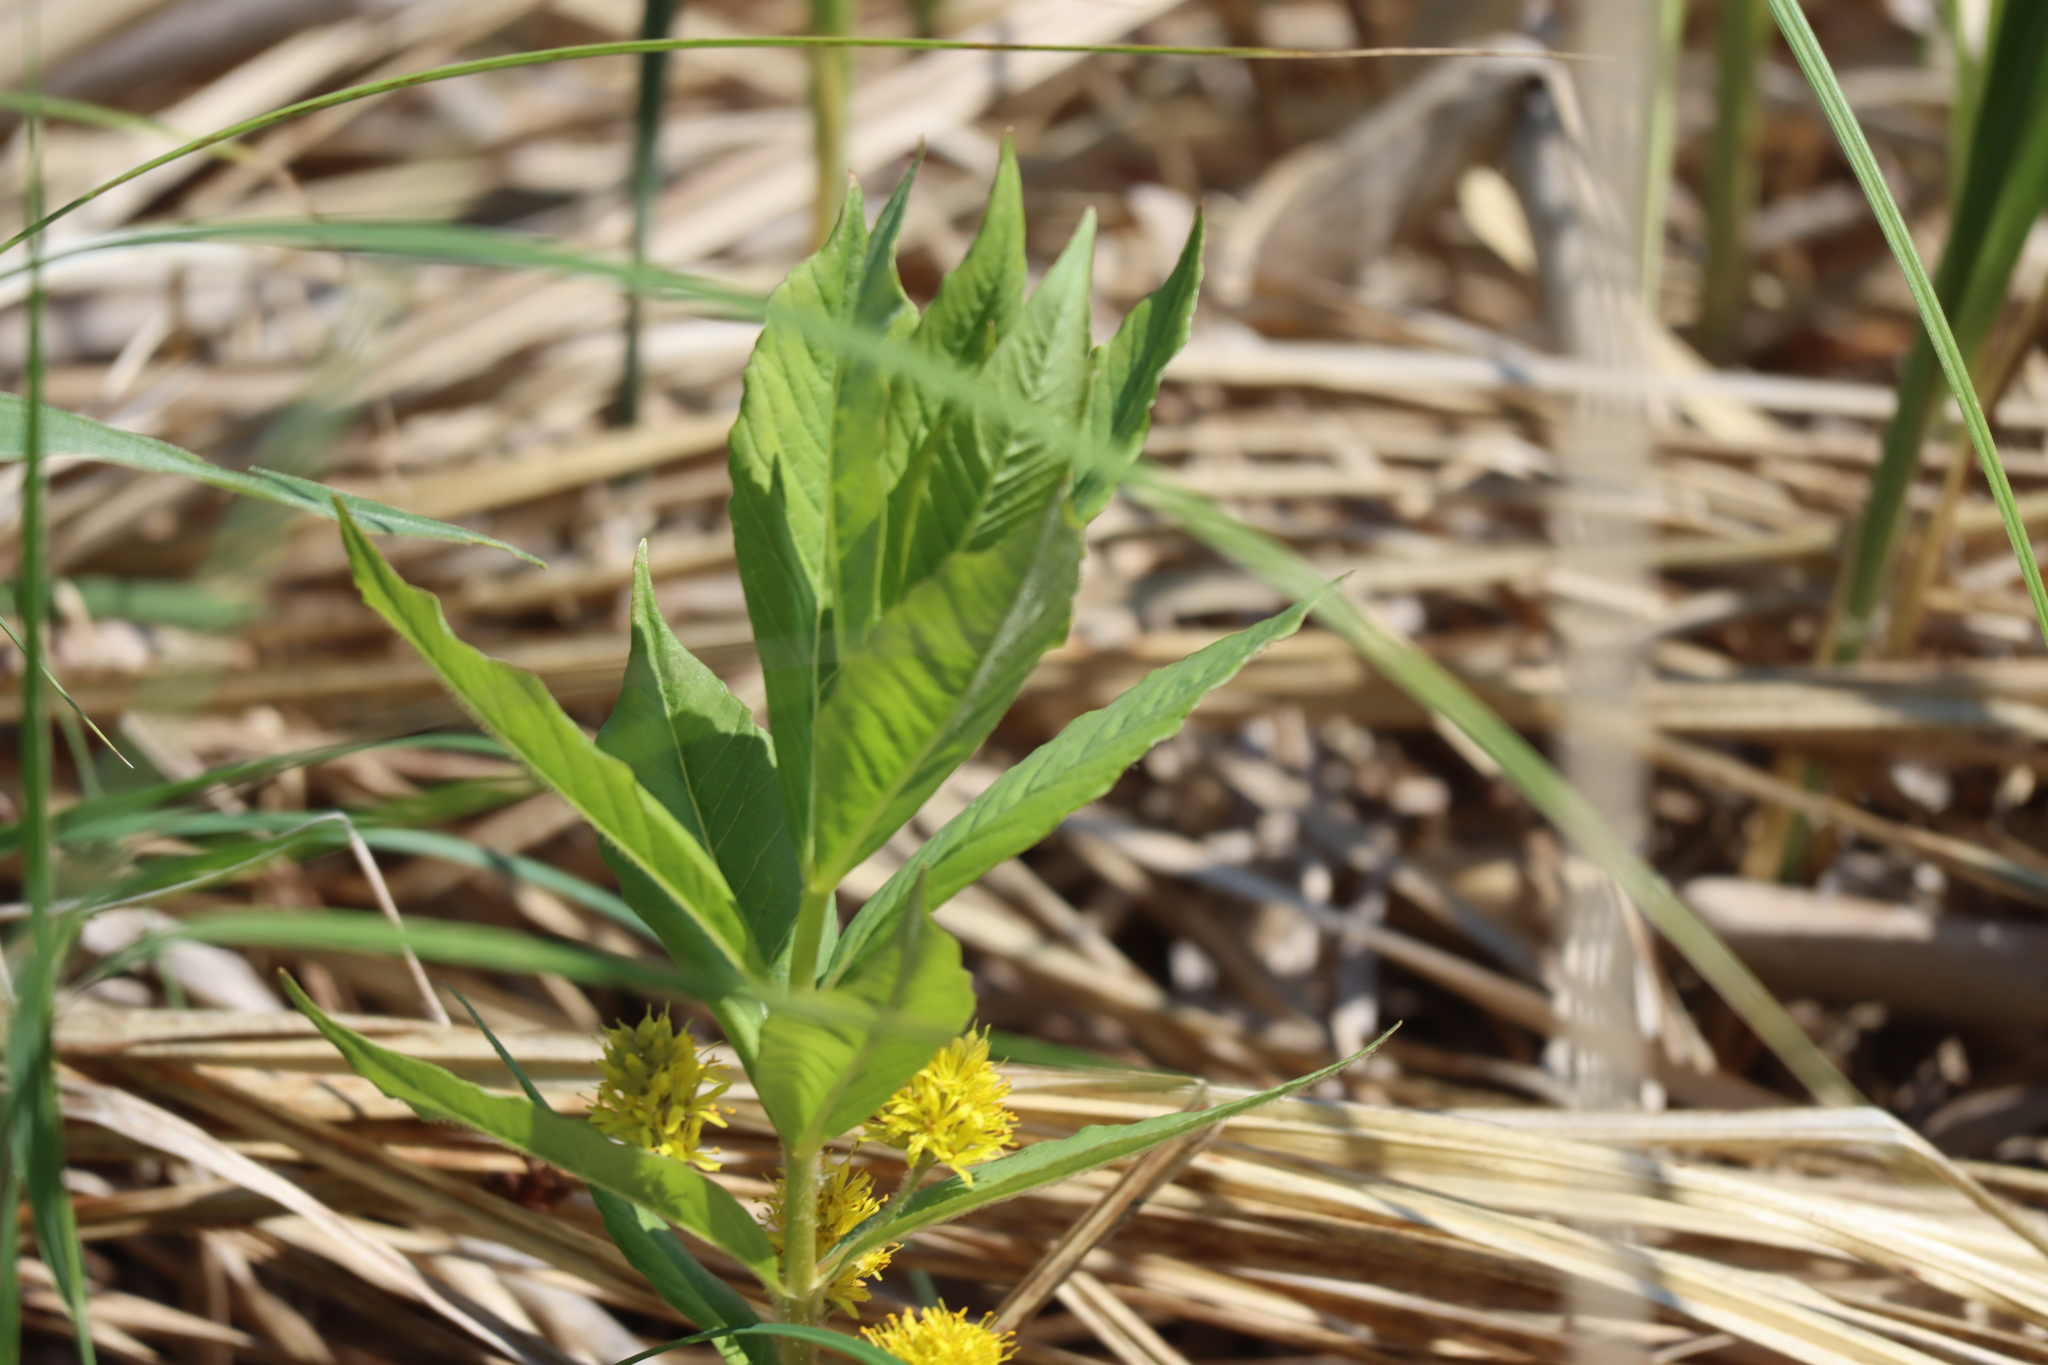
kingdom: Plantae
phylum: Tracheophyta
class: Magnoliopsida
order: Ericales
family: Primulaceae
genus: Lysimachia
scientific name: Lysimachia thyrsiflora
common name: Tufted loosestrife
